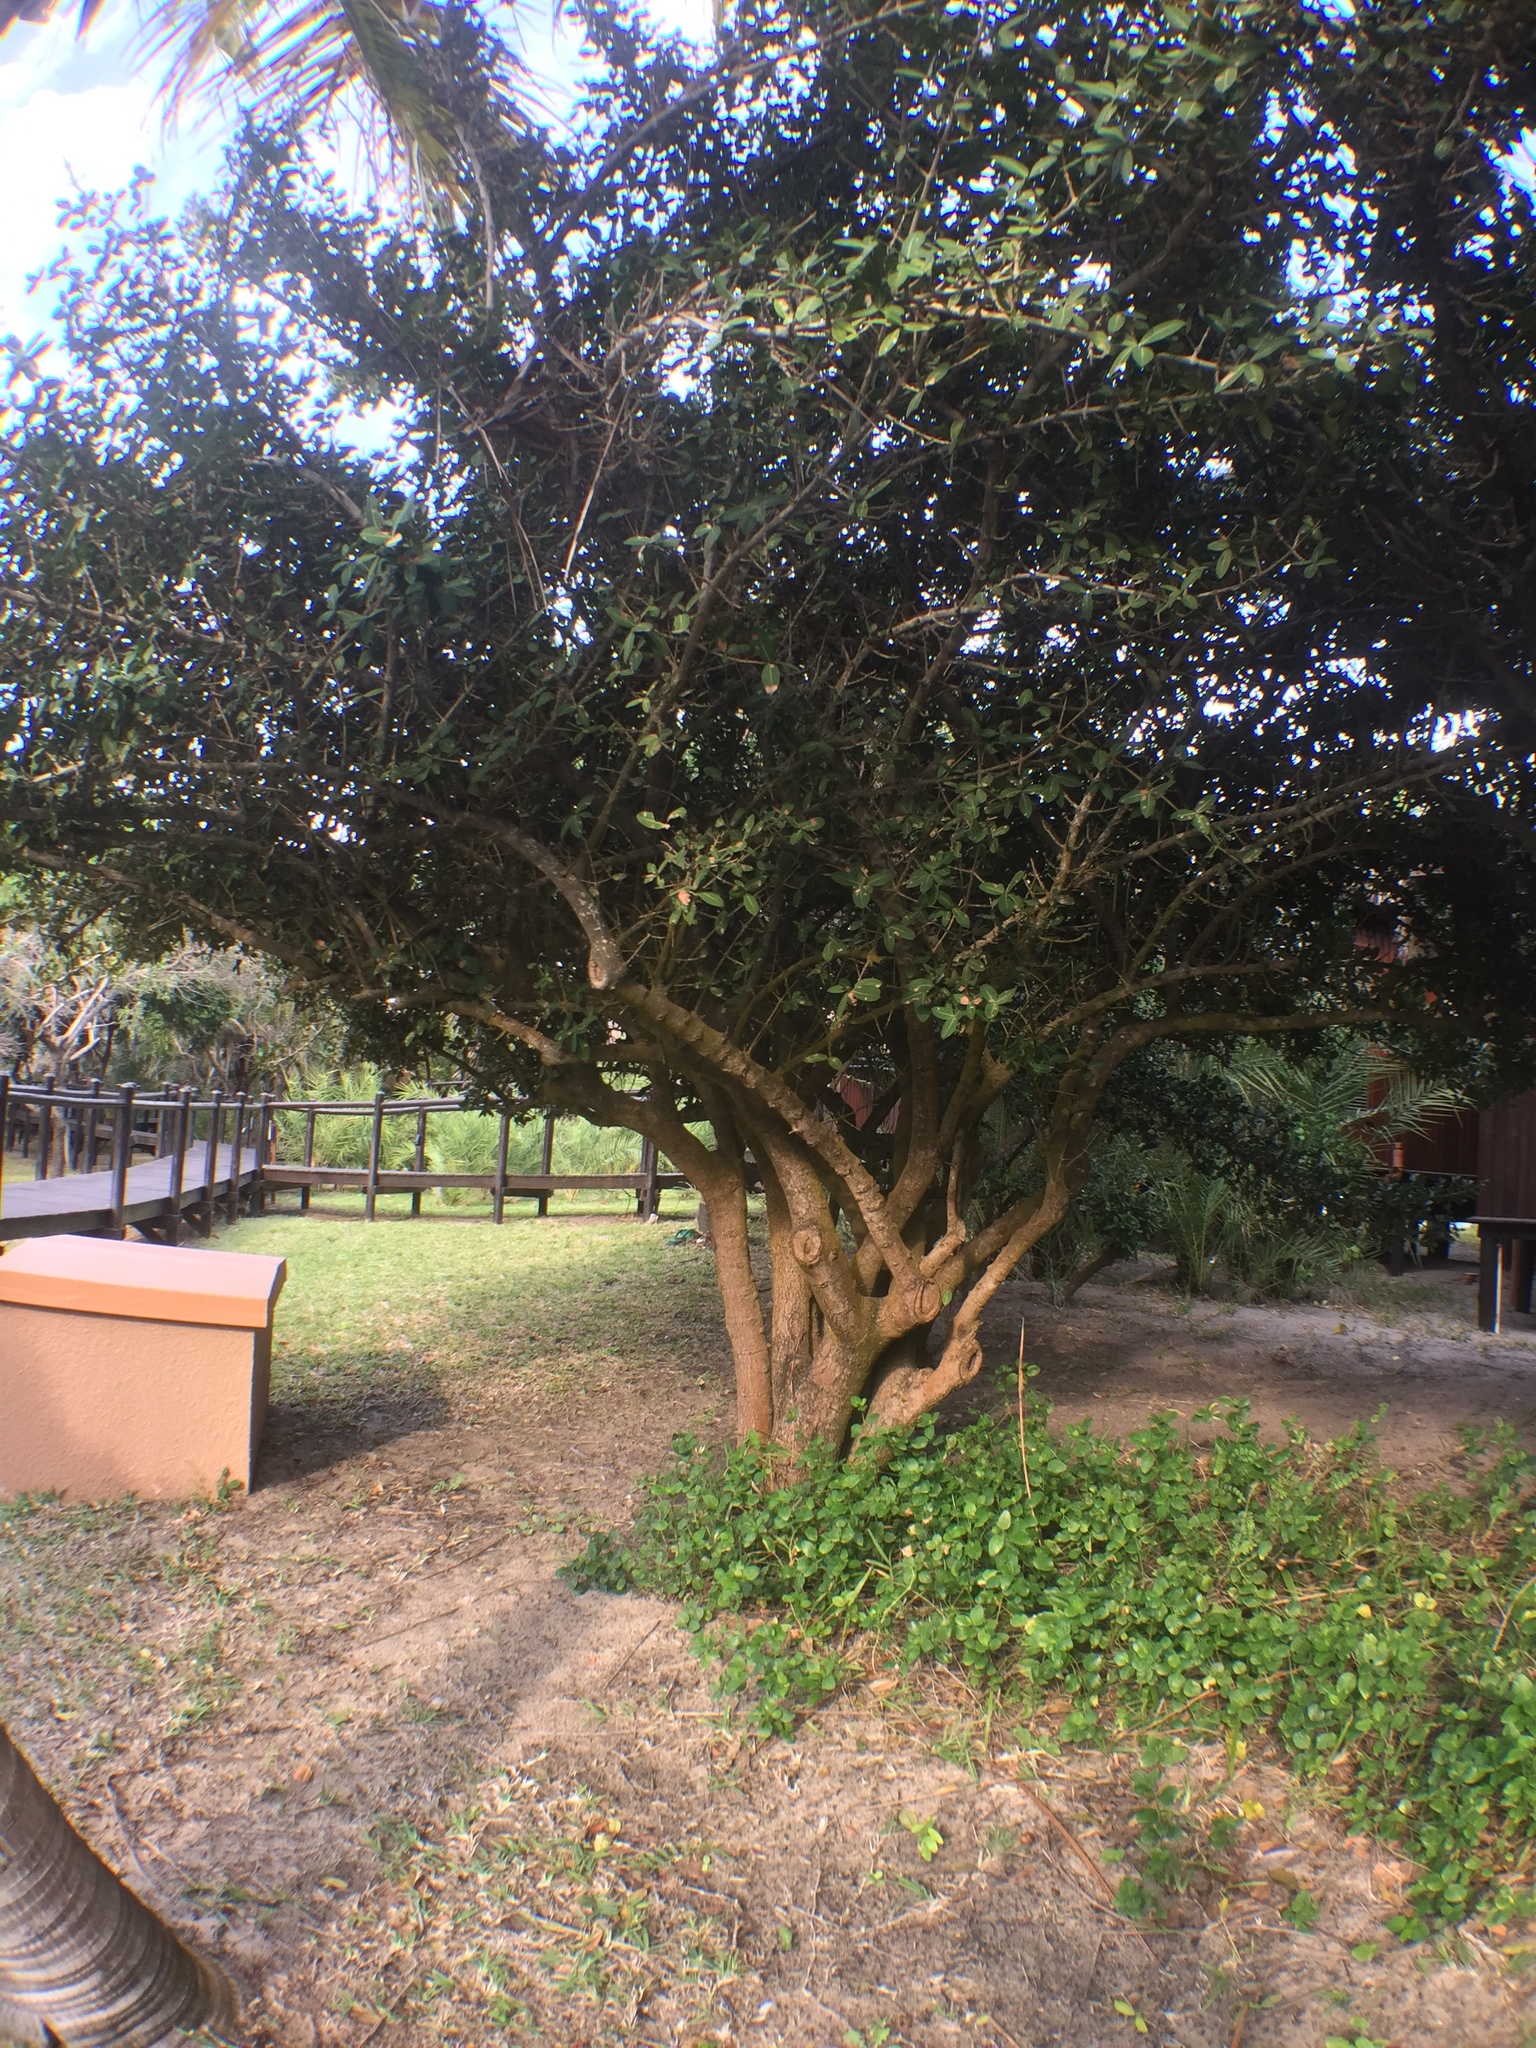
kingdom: Plantae
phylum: Tracheophyta
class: Magnoliopsida
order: Malpighiales
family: Clusiaceae
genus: Garcinia
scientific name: Garcinia livingstonei
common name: African mangosteen
